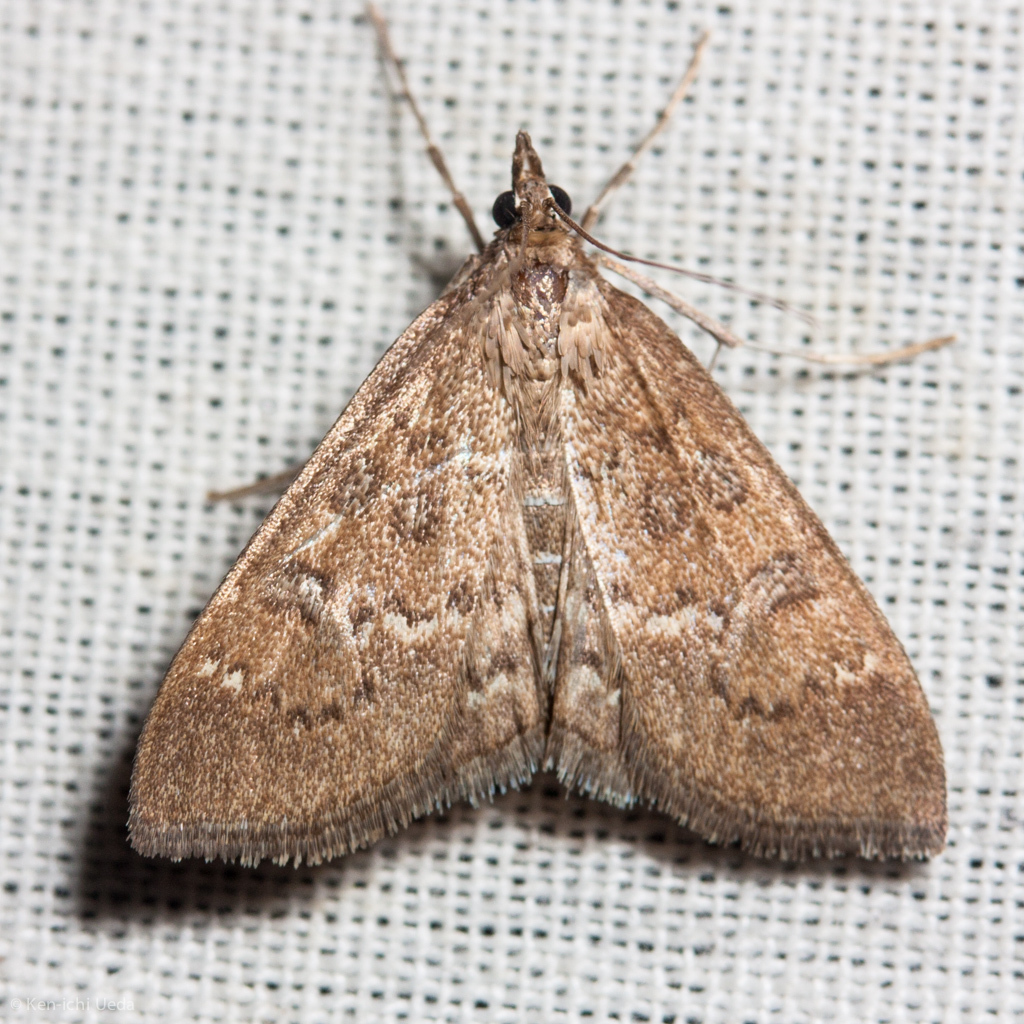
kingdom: Animalia
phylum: Arthropoda
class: Insecta
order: Lepidoptera
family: Crambidae
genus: Mecyna
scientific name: Mecyna mustelinalis
